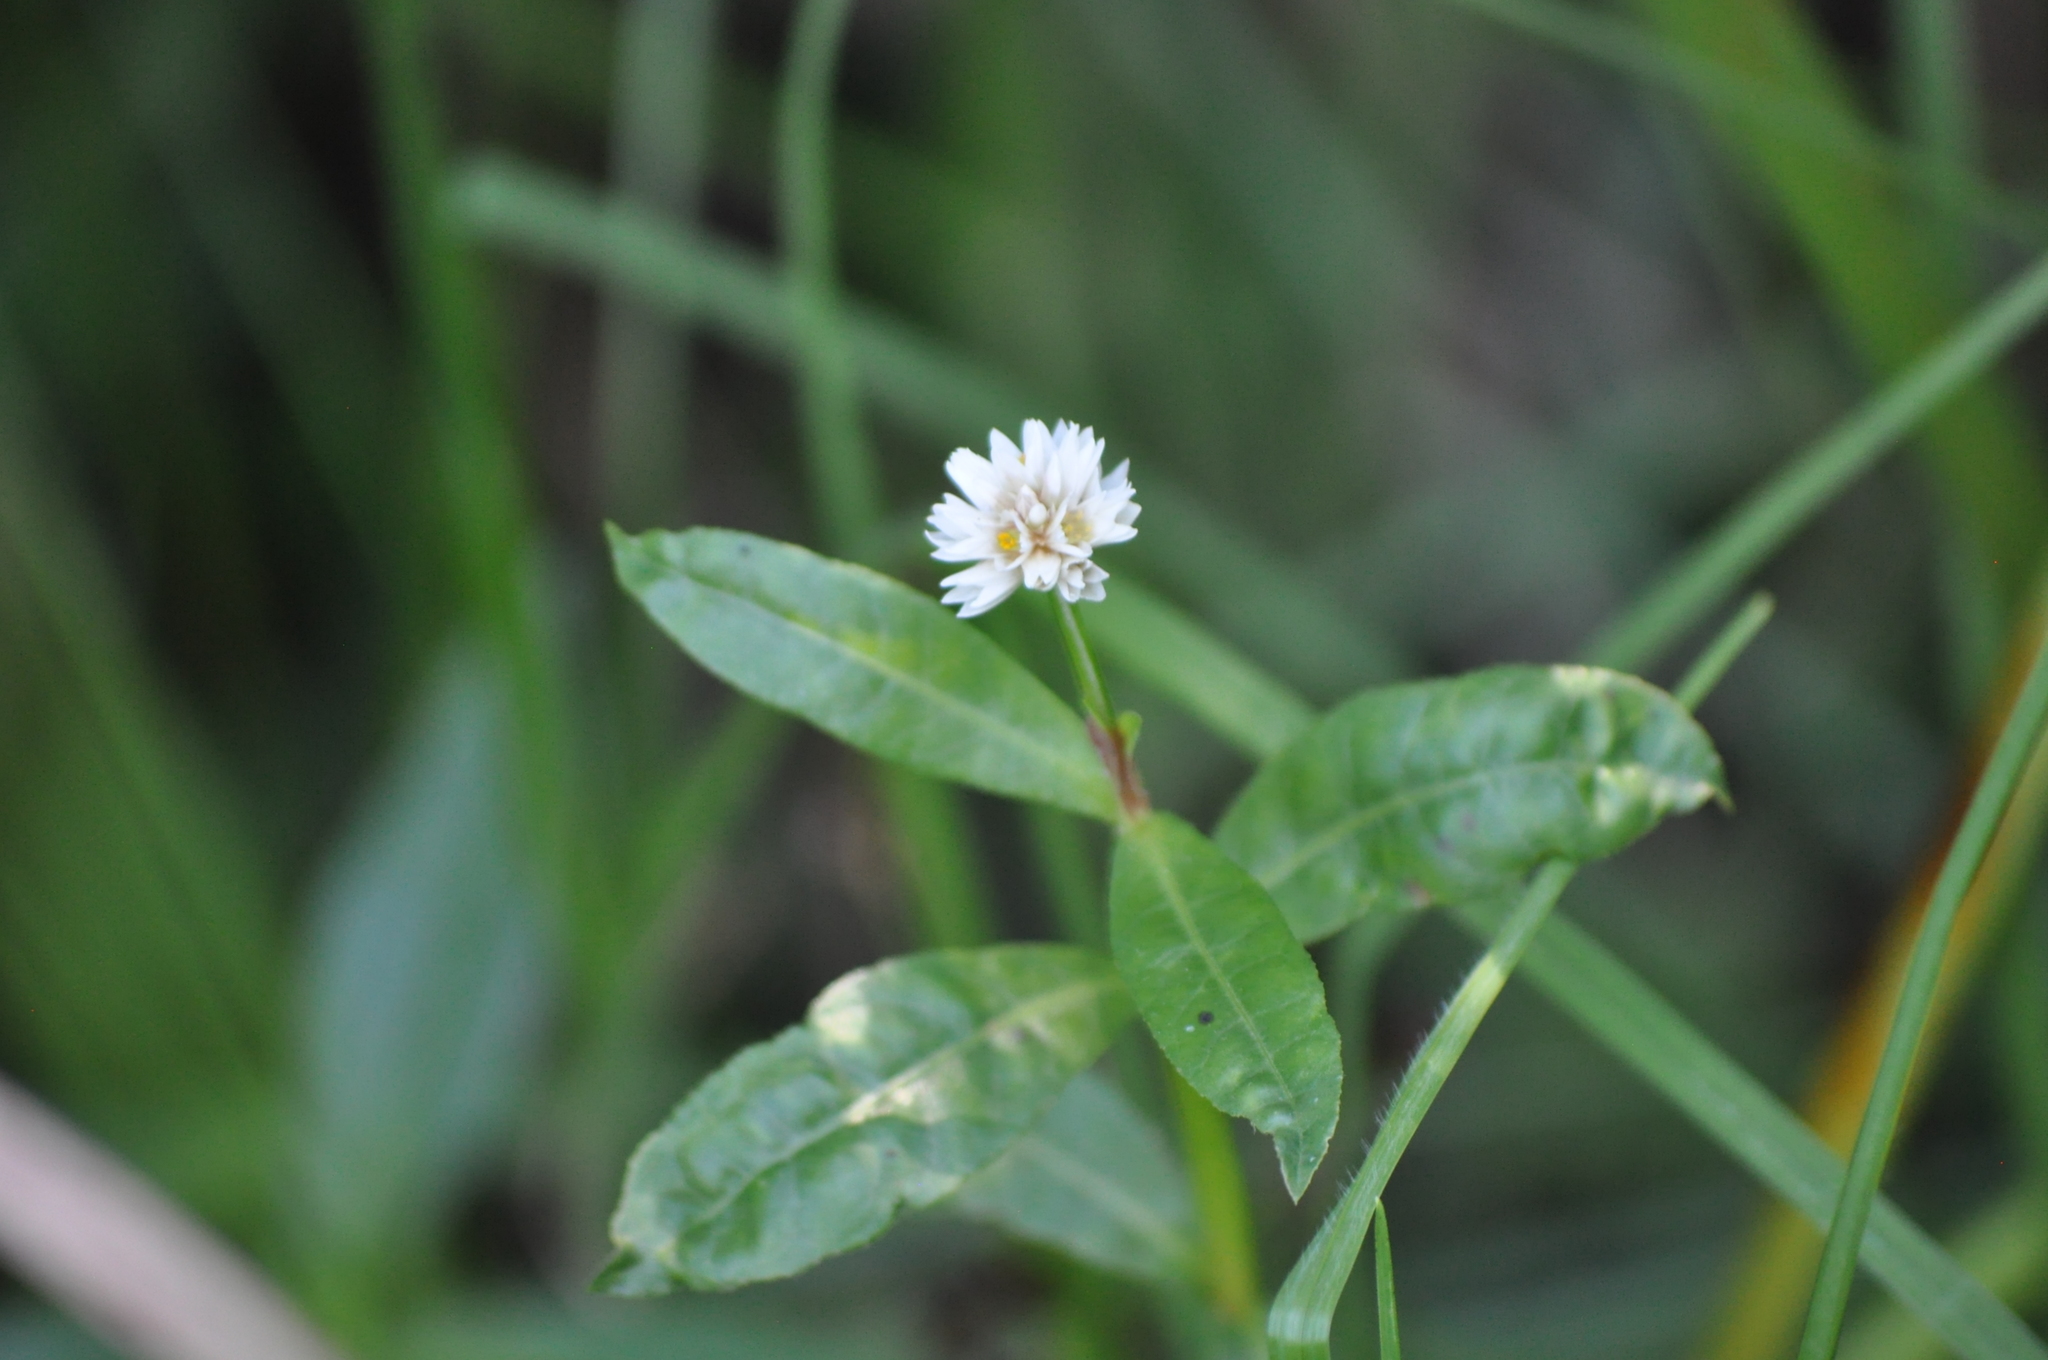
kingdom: Plantae
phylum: Tracheophyta
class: Magnoliopsida
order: Caryophyllales
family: Amaranthaceae
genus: Alternanthera
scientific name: Alternanthera philoxeroides
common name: Alligatorweed
